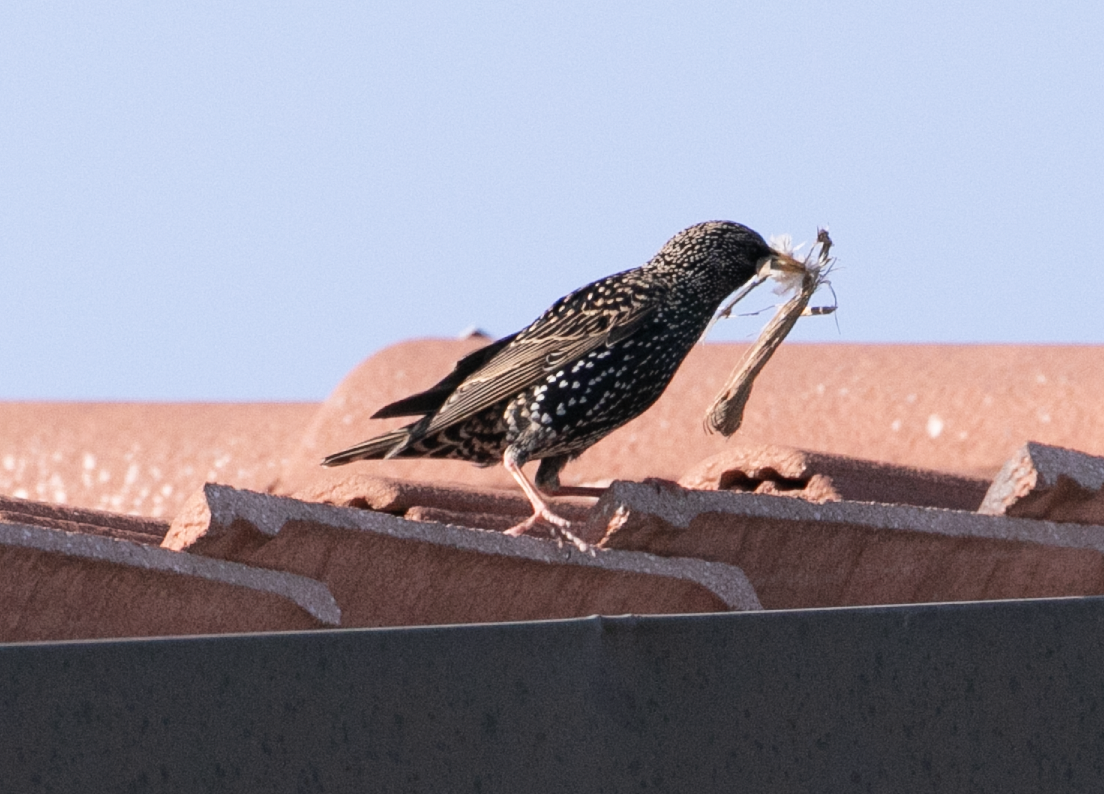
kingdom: Animalia
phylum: Chordata
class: Aves
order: Passeriformes
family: Sturnidae
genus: Sturnus
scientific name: Sturnus vulgaris
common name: Common starling
